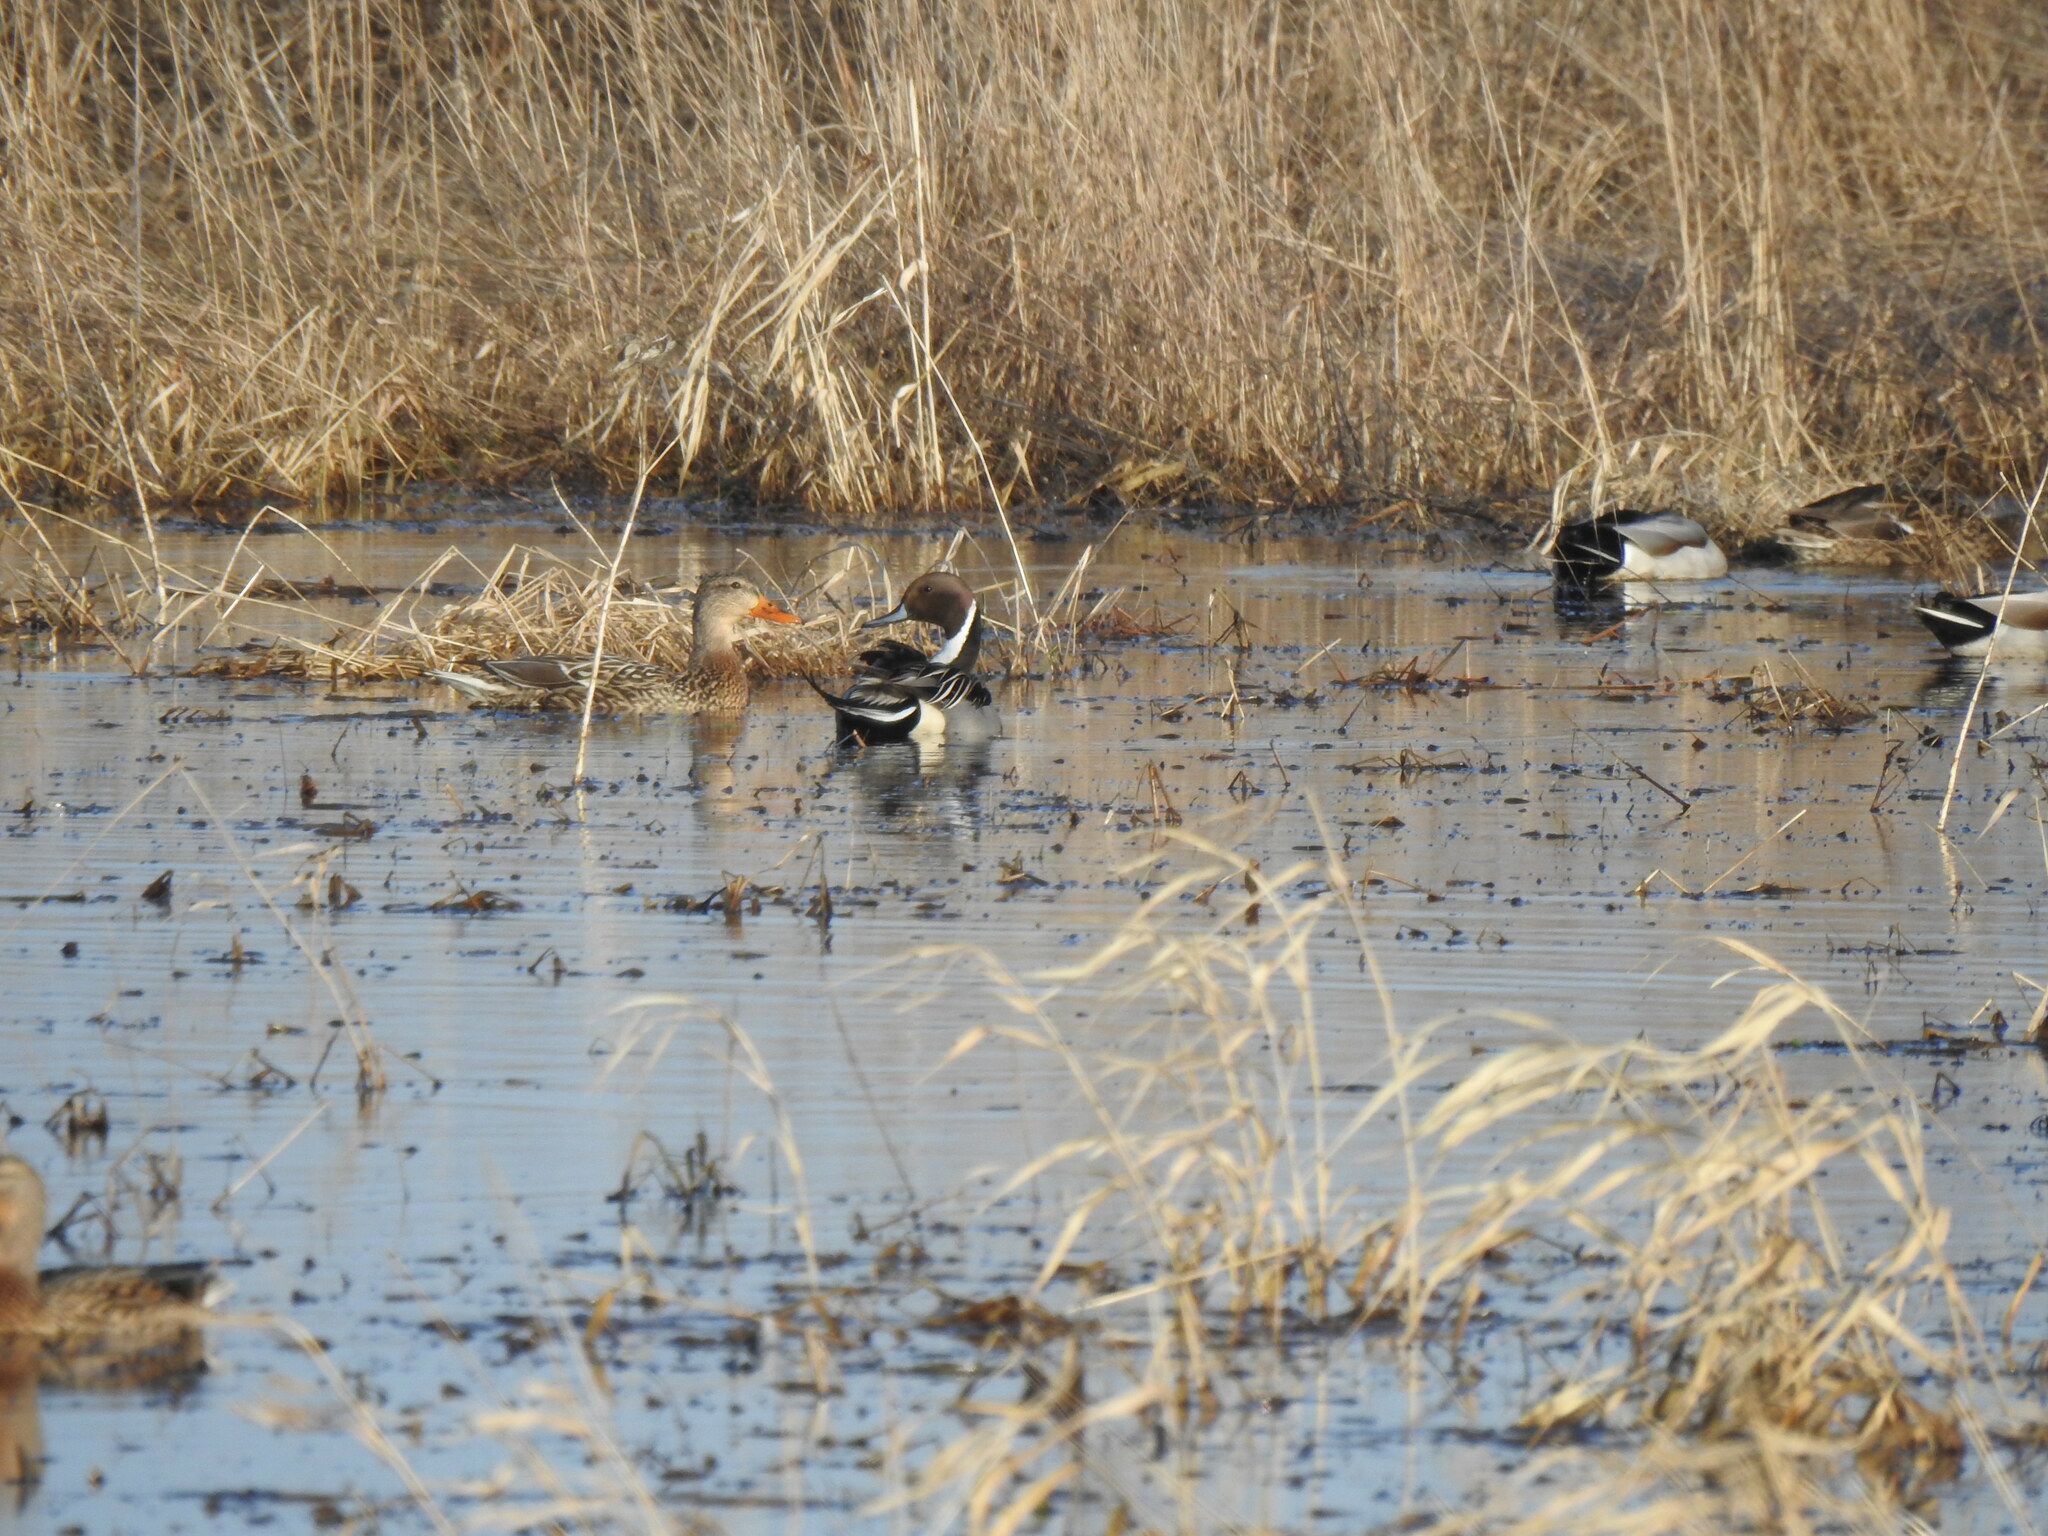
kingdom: Animalia
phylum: Chordata
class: Aves
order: Anseriformes
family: Anatidae
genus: Anas
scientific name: Anas acuta
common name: Northern pintail
